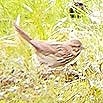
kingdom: Animalia
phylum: Chordata
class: Aves
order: Passeriformes
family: Passerellidae
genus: Melospiza
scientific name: Melospiza melodia
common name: Song sparrow
